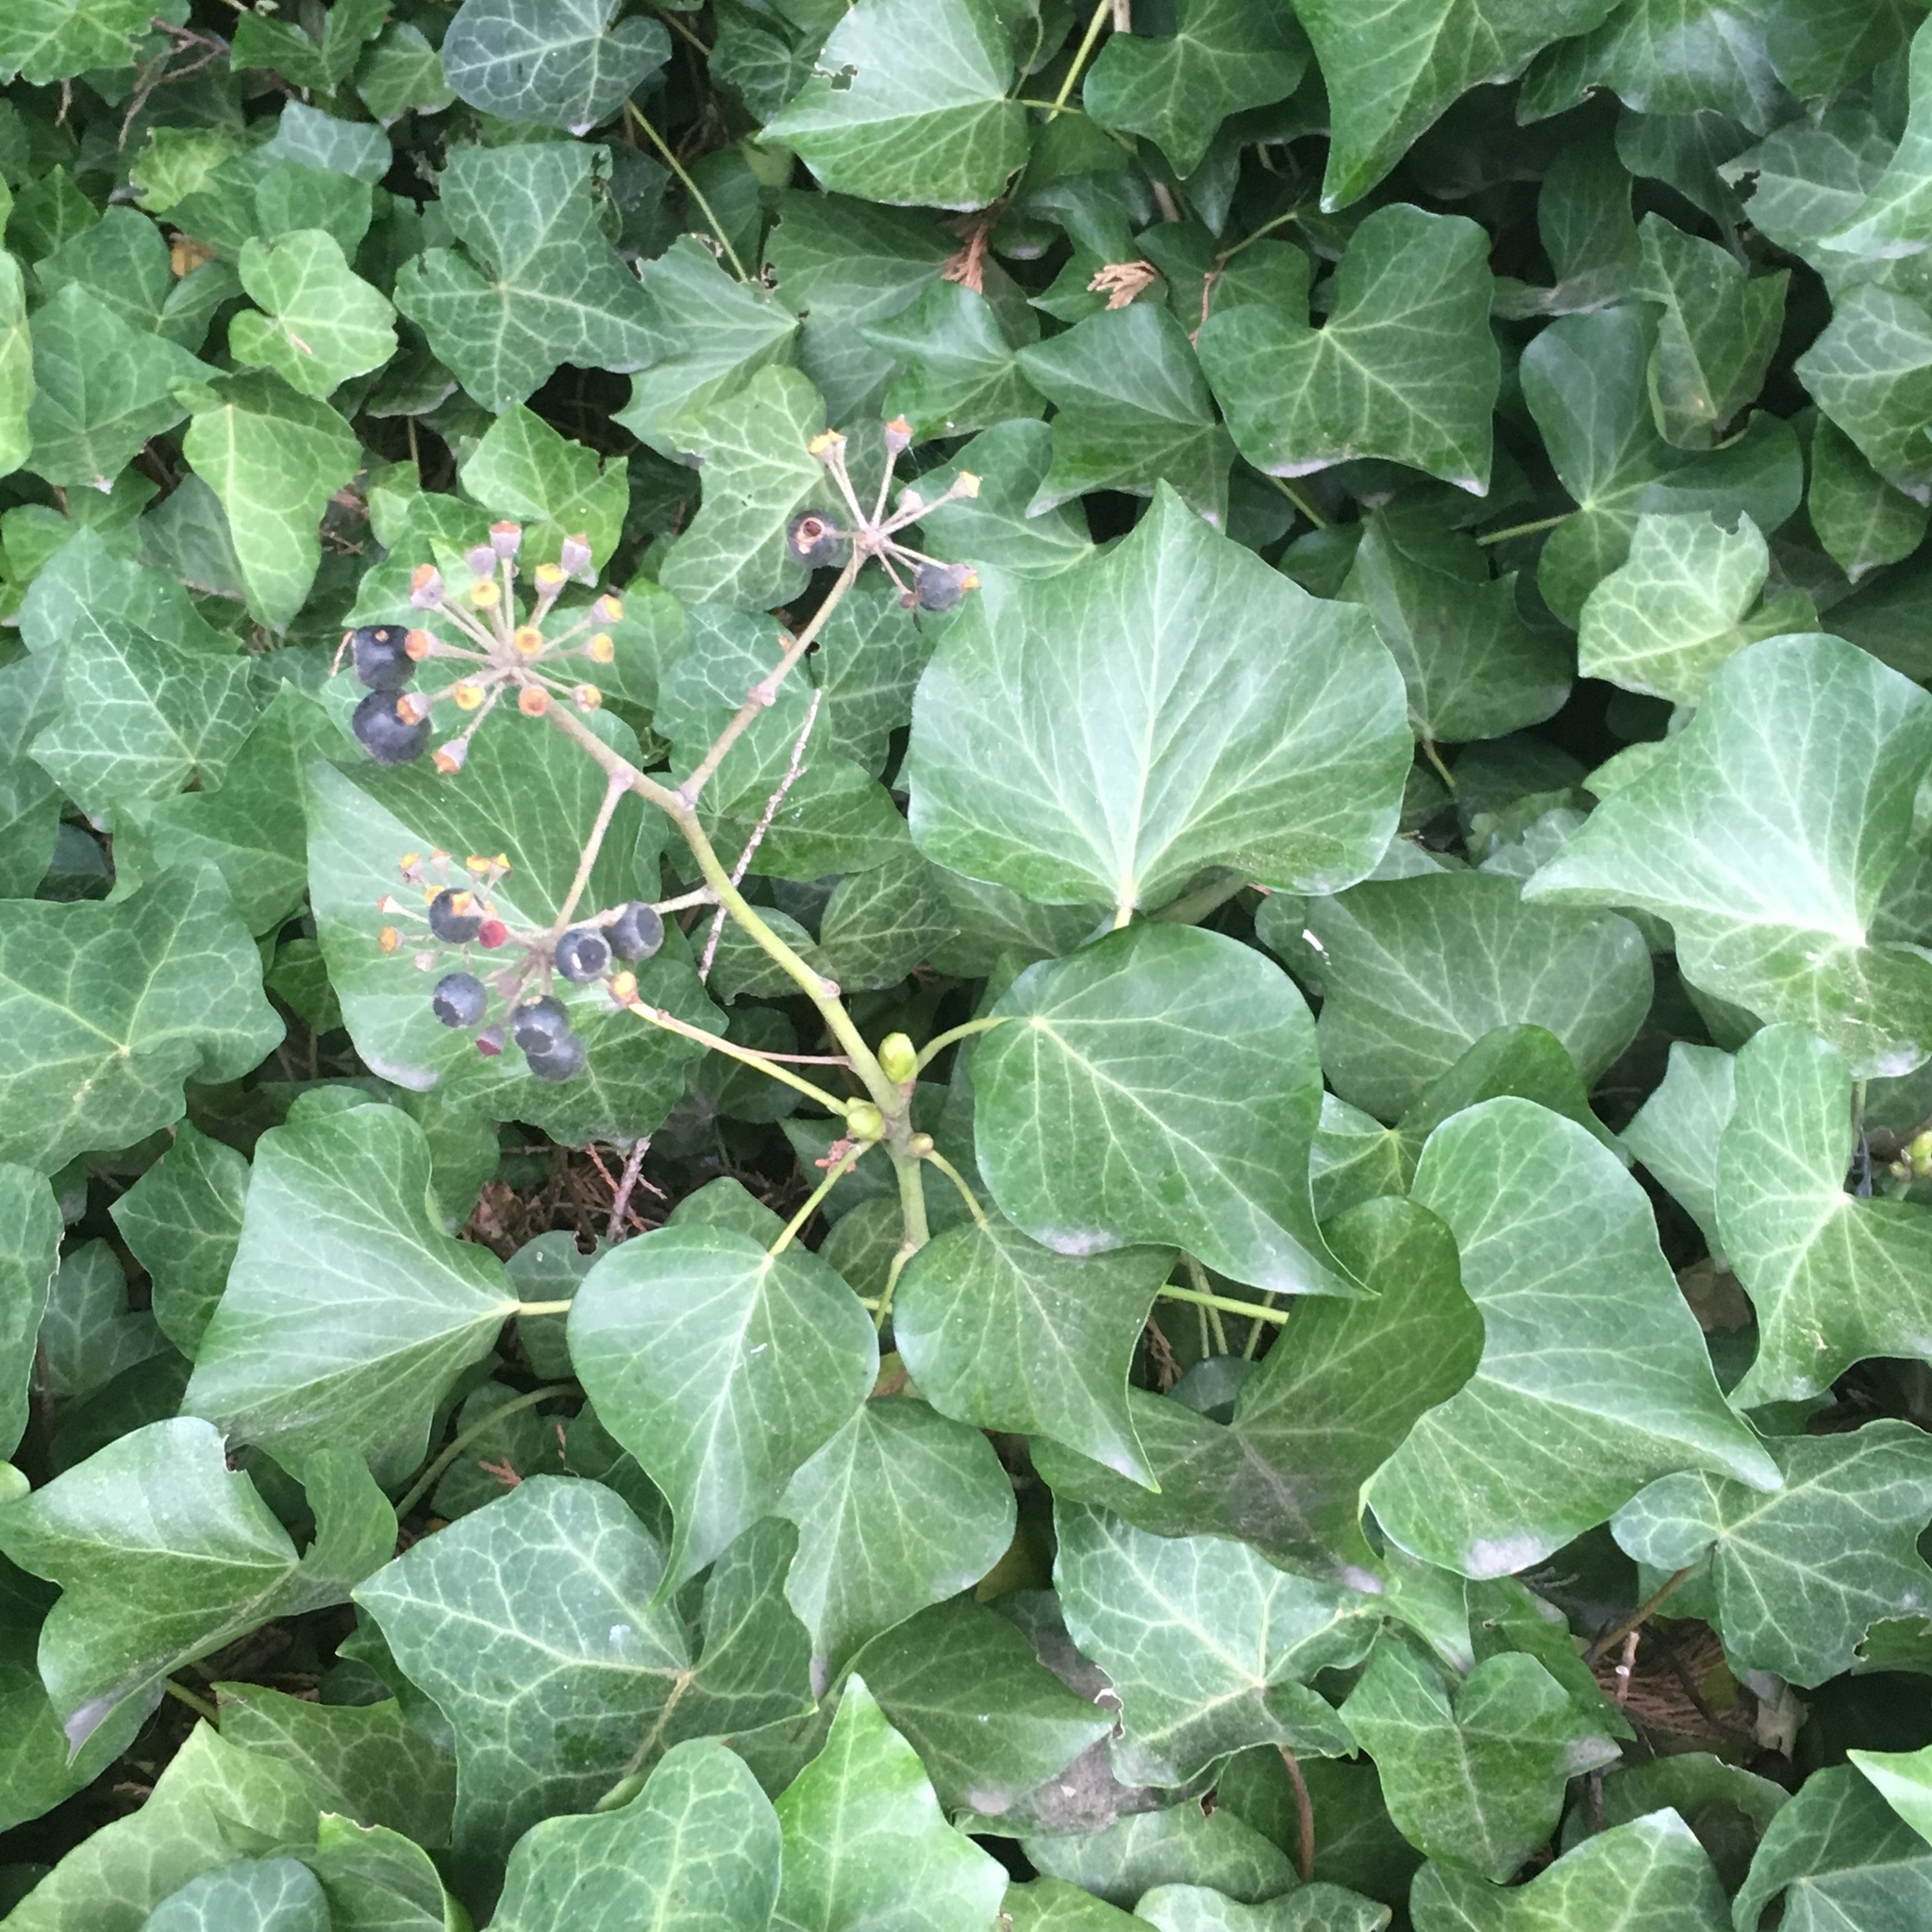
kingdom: Plantae
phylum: Tracheophyta
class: Magnoliopsida
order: Apiales
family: Araliaceae
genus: Hedera
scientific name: Hedera helix
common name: Ivy
